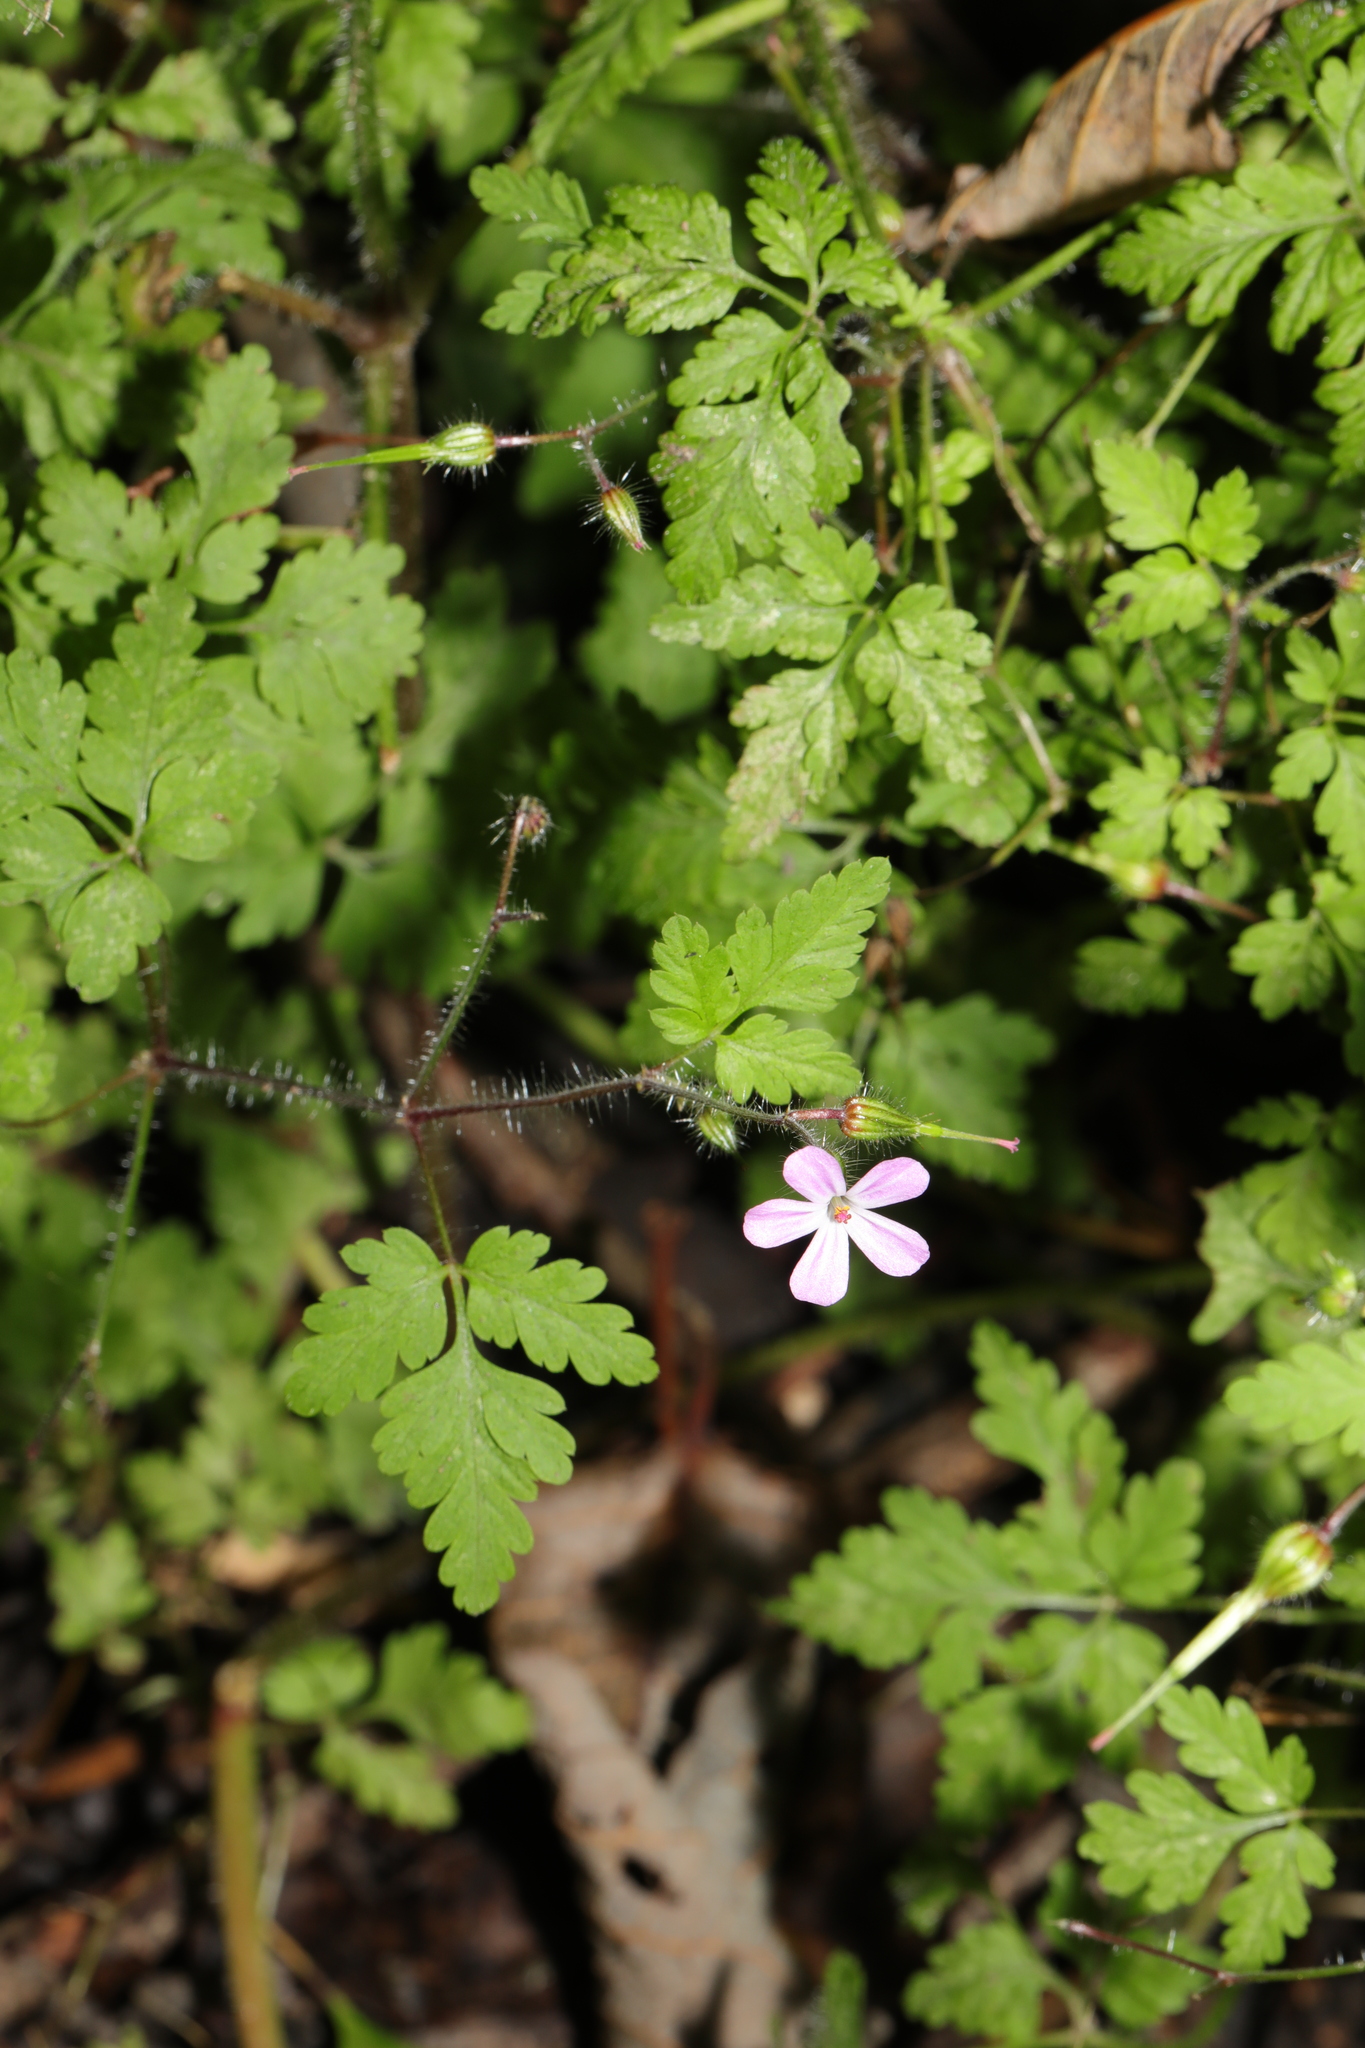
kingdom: Plantae
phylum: Tracheophyta
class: Magnoliopsida
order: Geraniales
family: Geraniaceae
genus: Geranium
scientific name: Geranium robertianum
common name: Herb-robert
